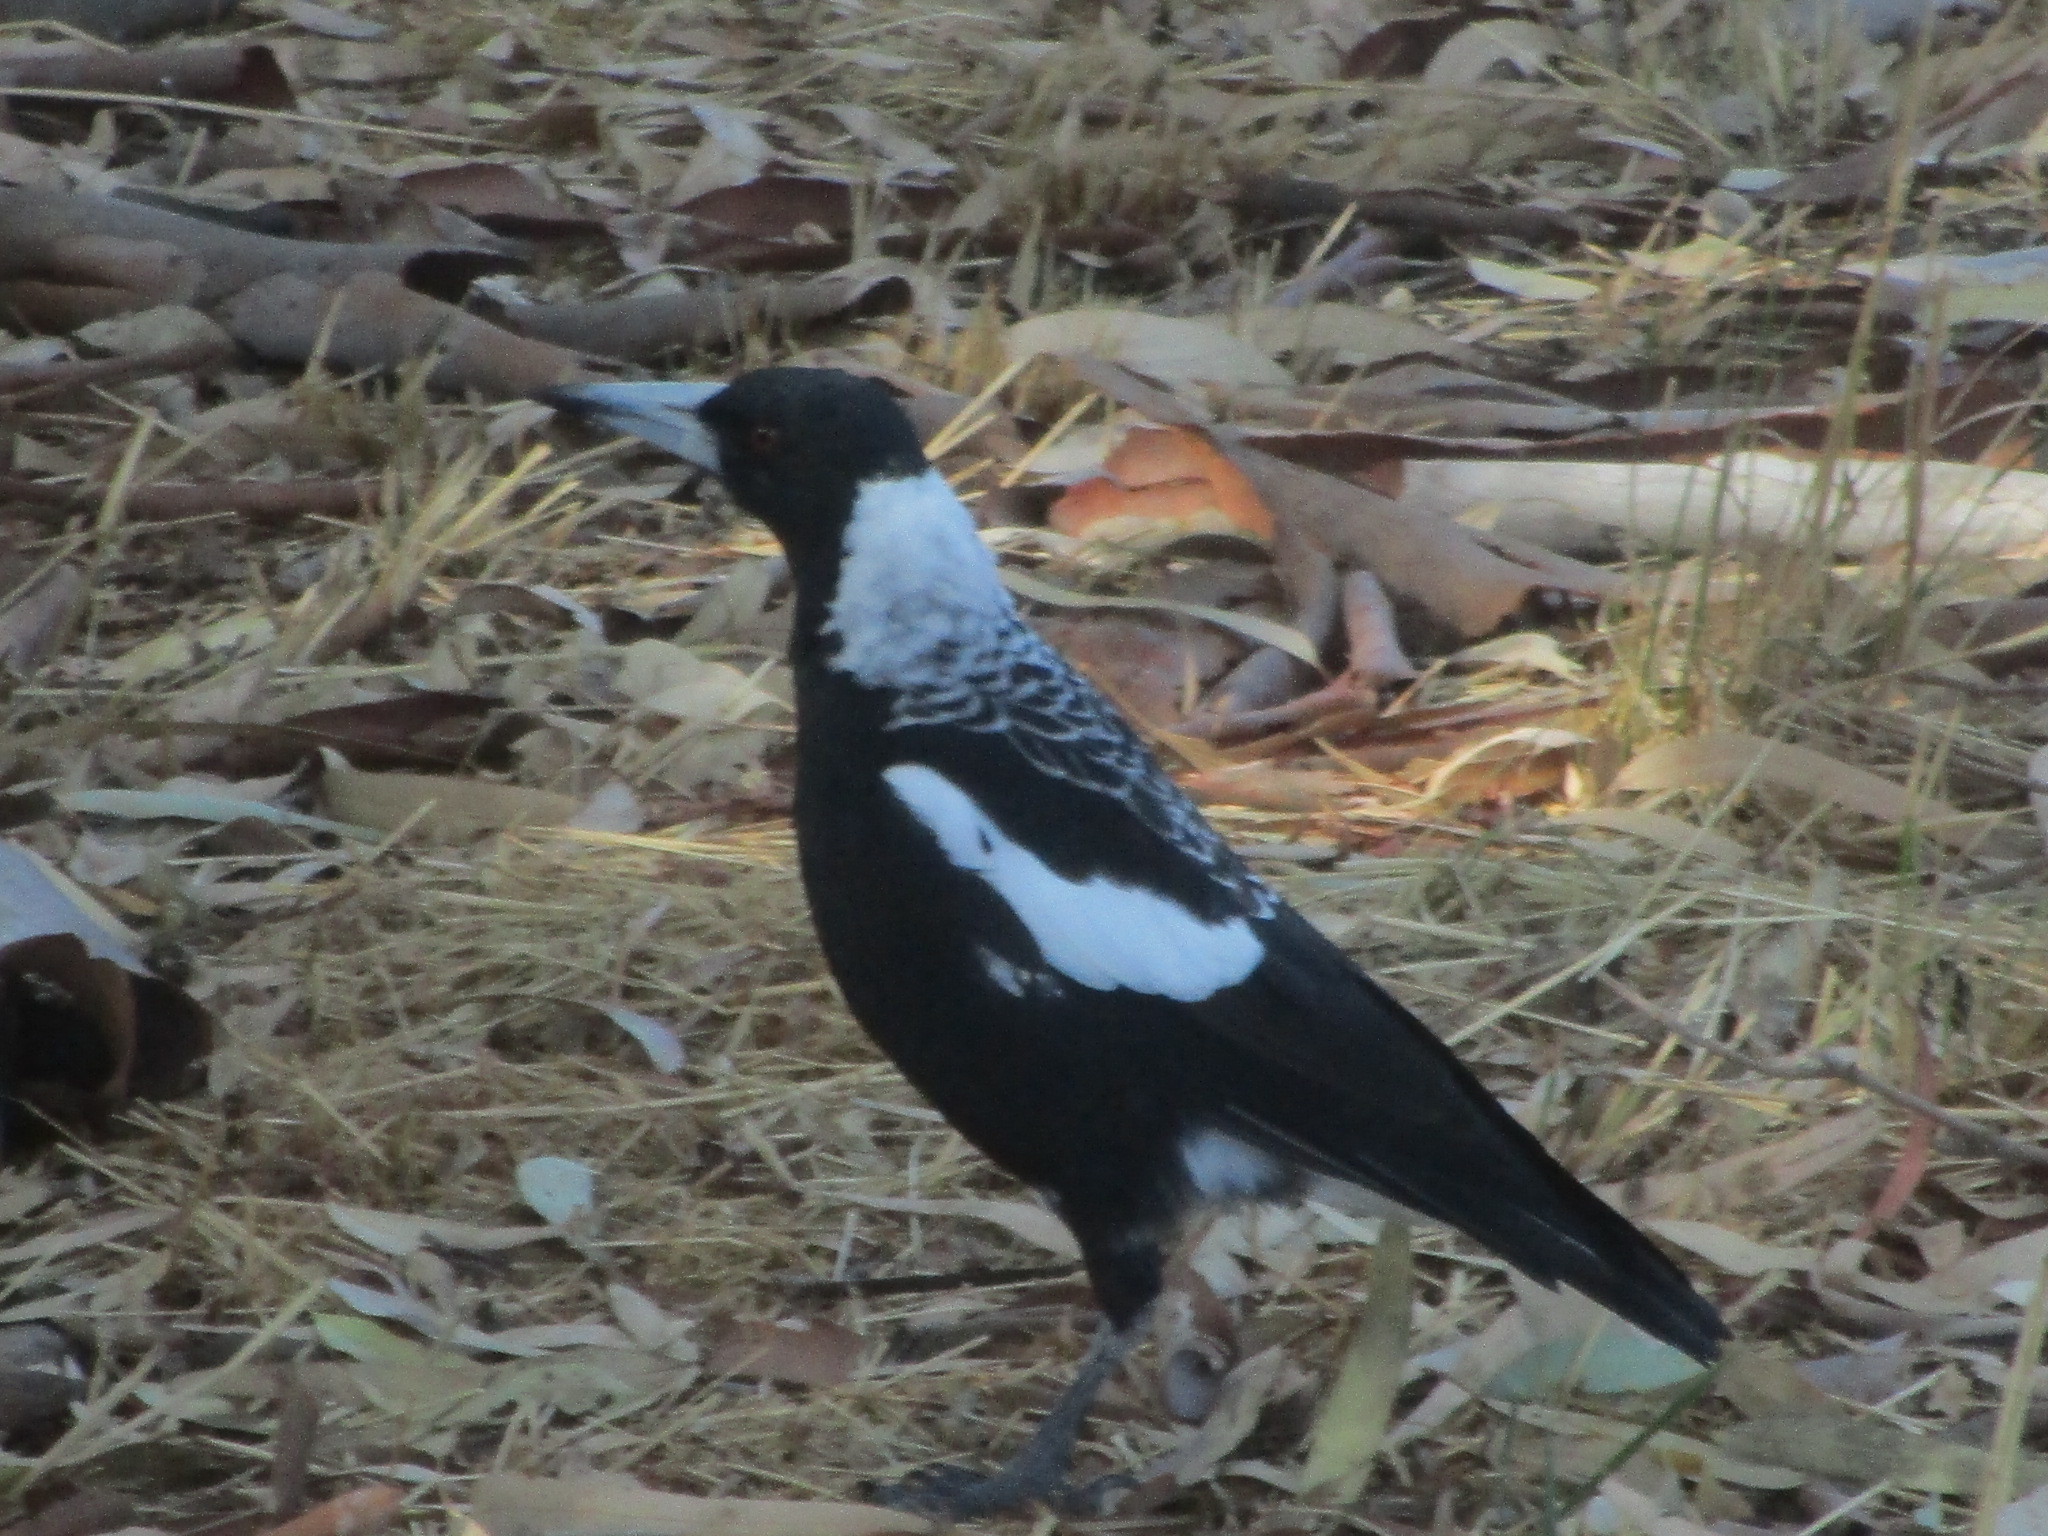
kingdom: Animalia
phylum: Chordata
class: Aves
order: Passeriformes
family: Cracticidae
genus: Gymnorhina
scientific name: Gymnorhina tibicen
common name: Australian magpie
